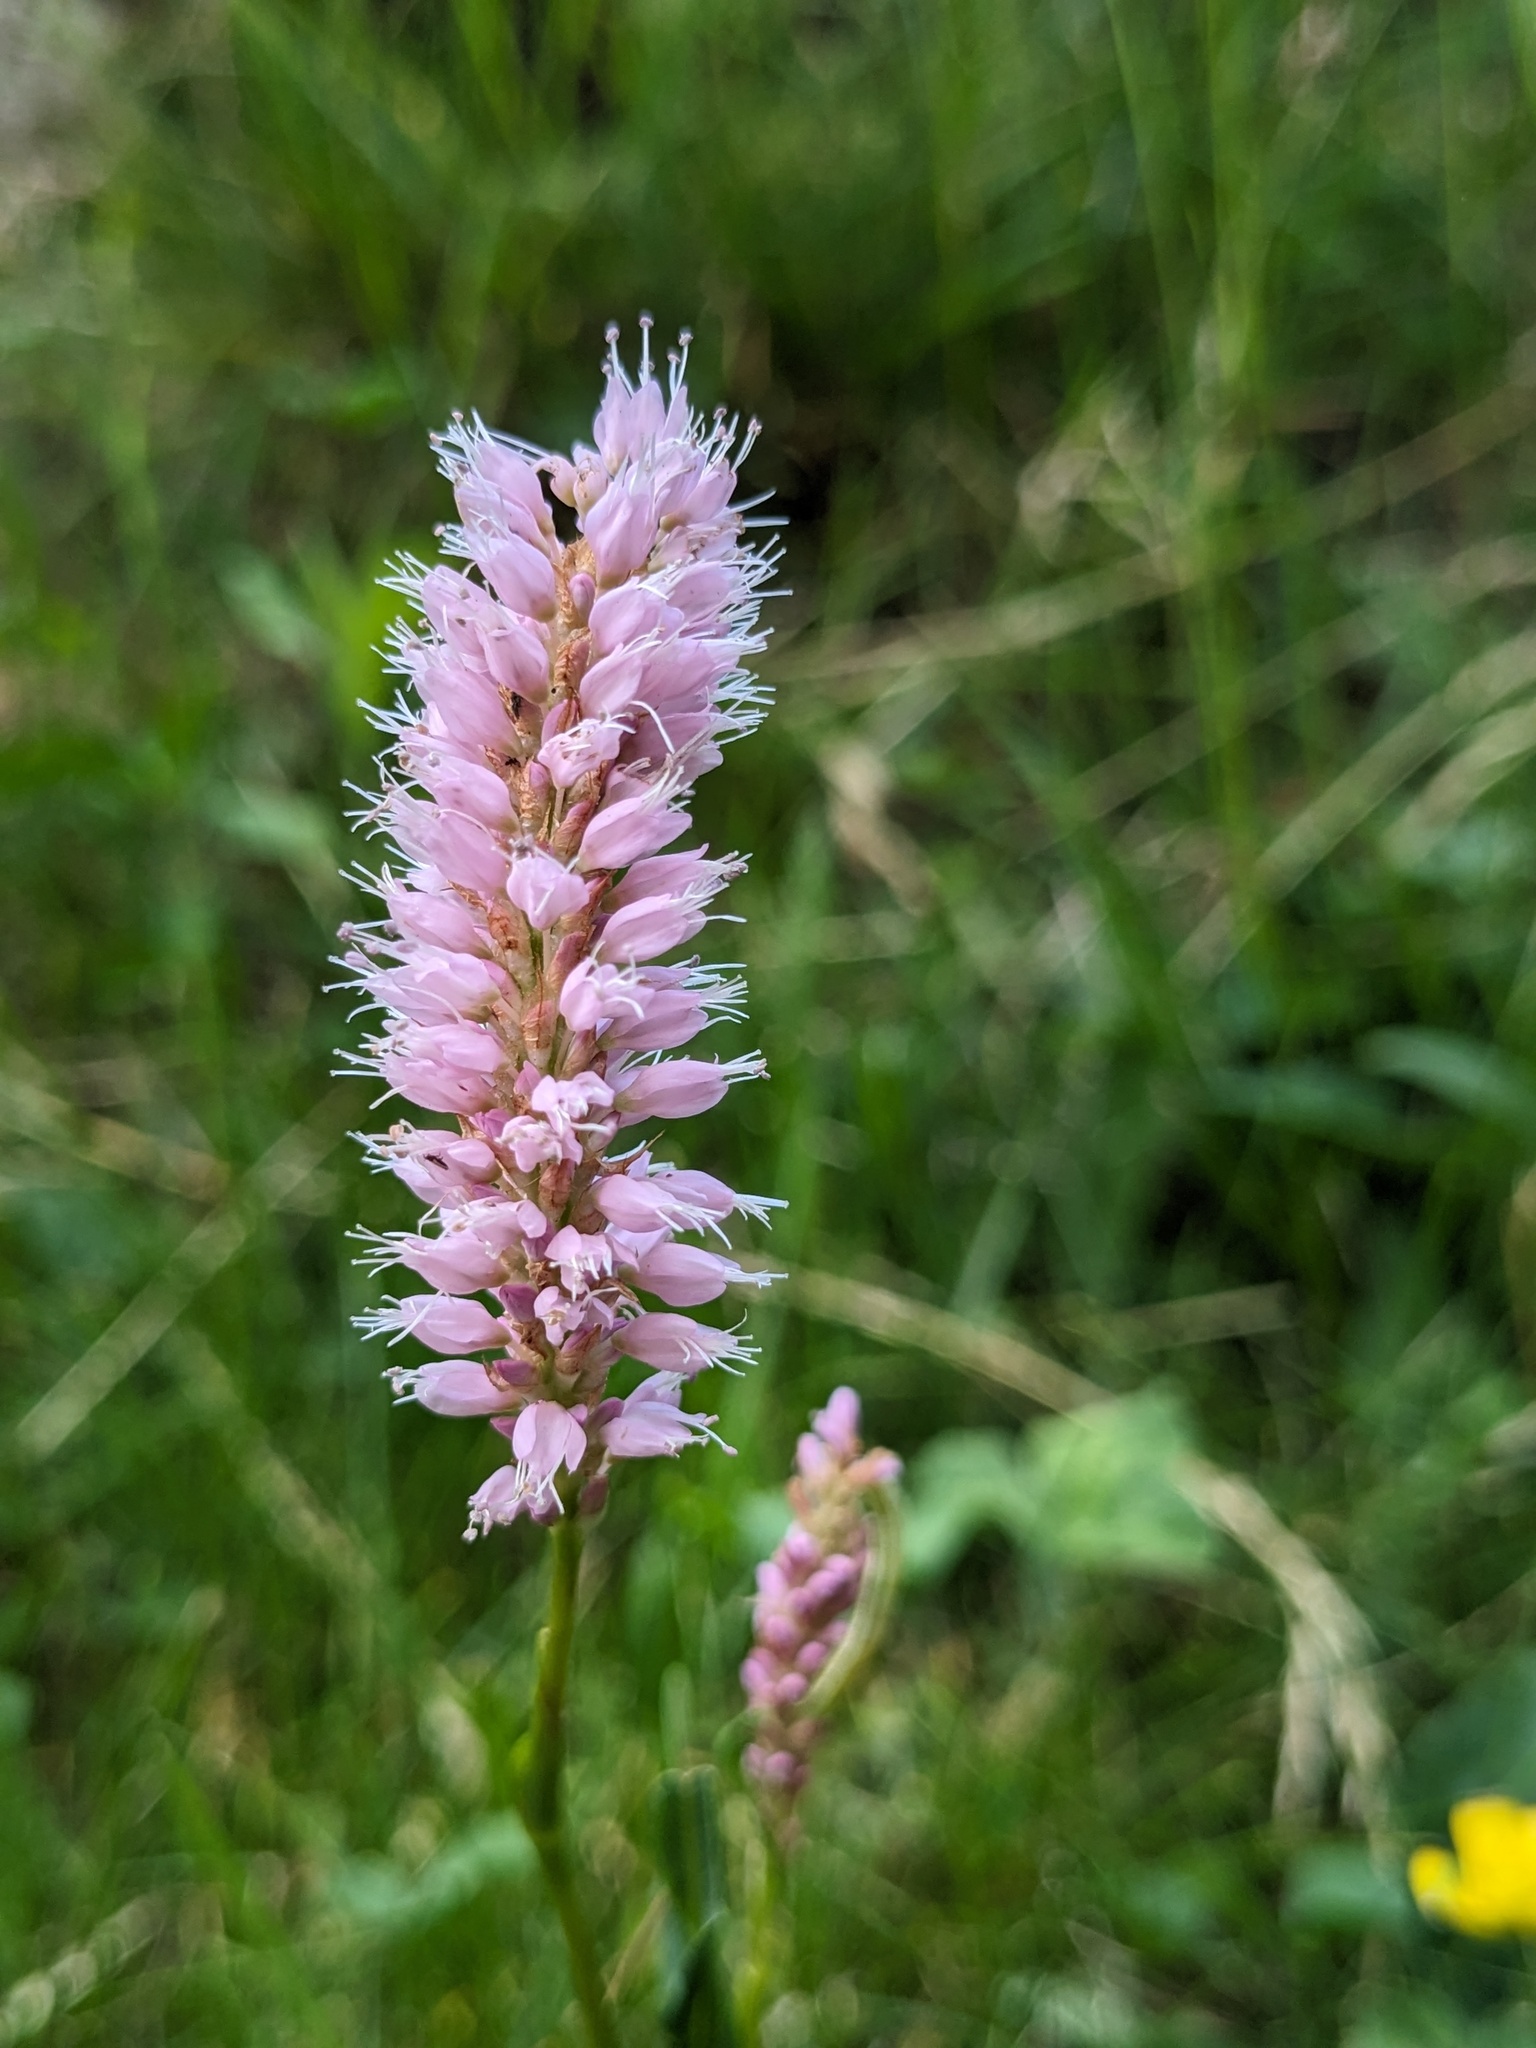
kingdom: Plantae
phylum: Tracheophyta
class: Magnoliopsida
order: Caryophyllales
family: Polygonaceae
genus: Bistorta
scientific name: Bistorta officinalis
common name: Common bistort
